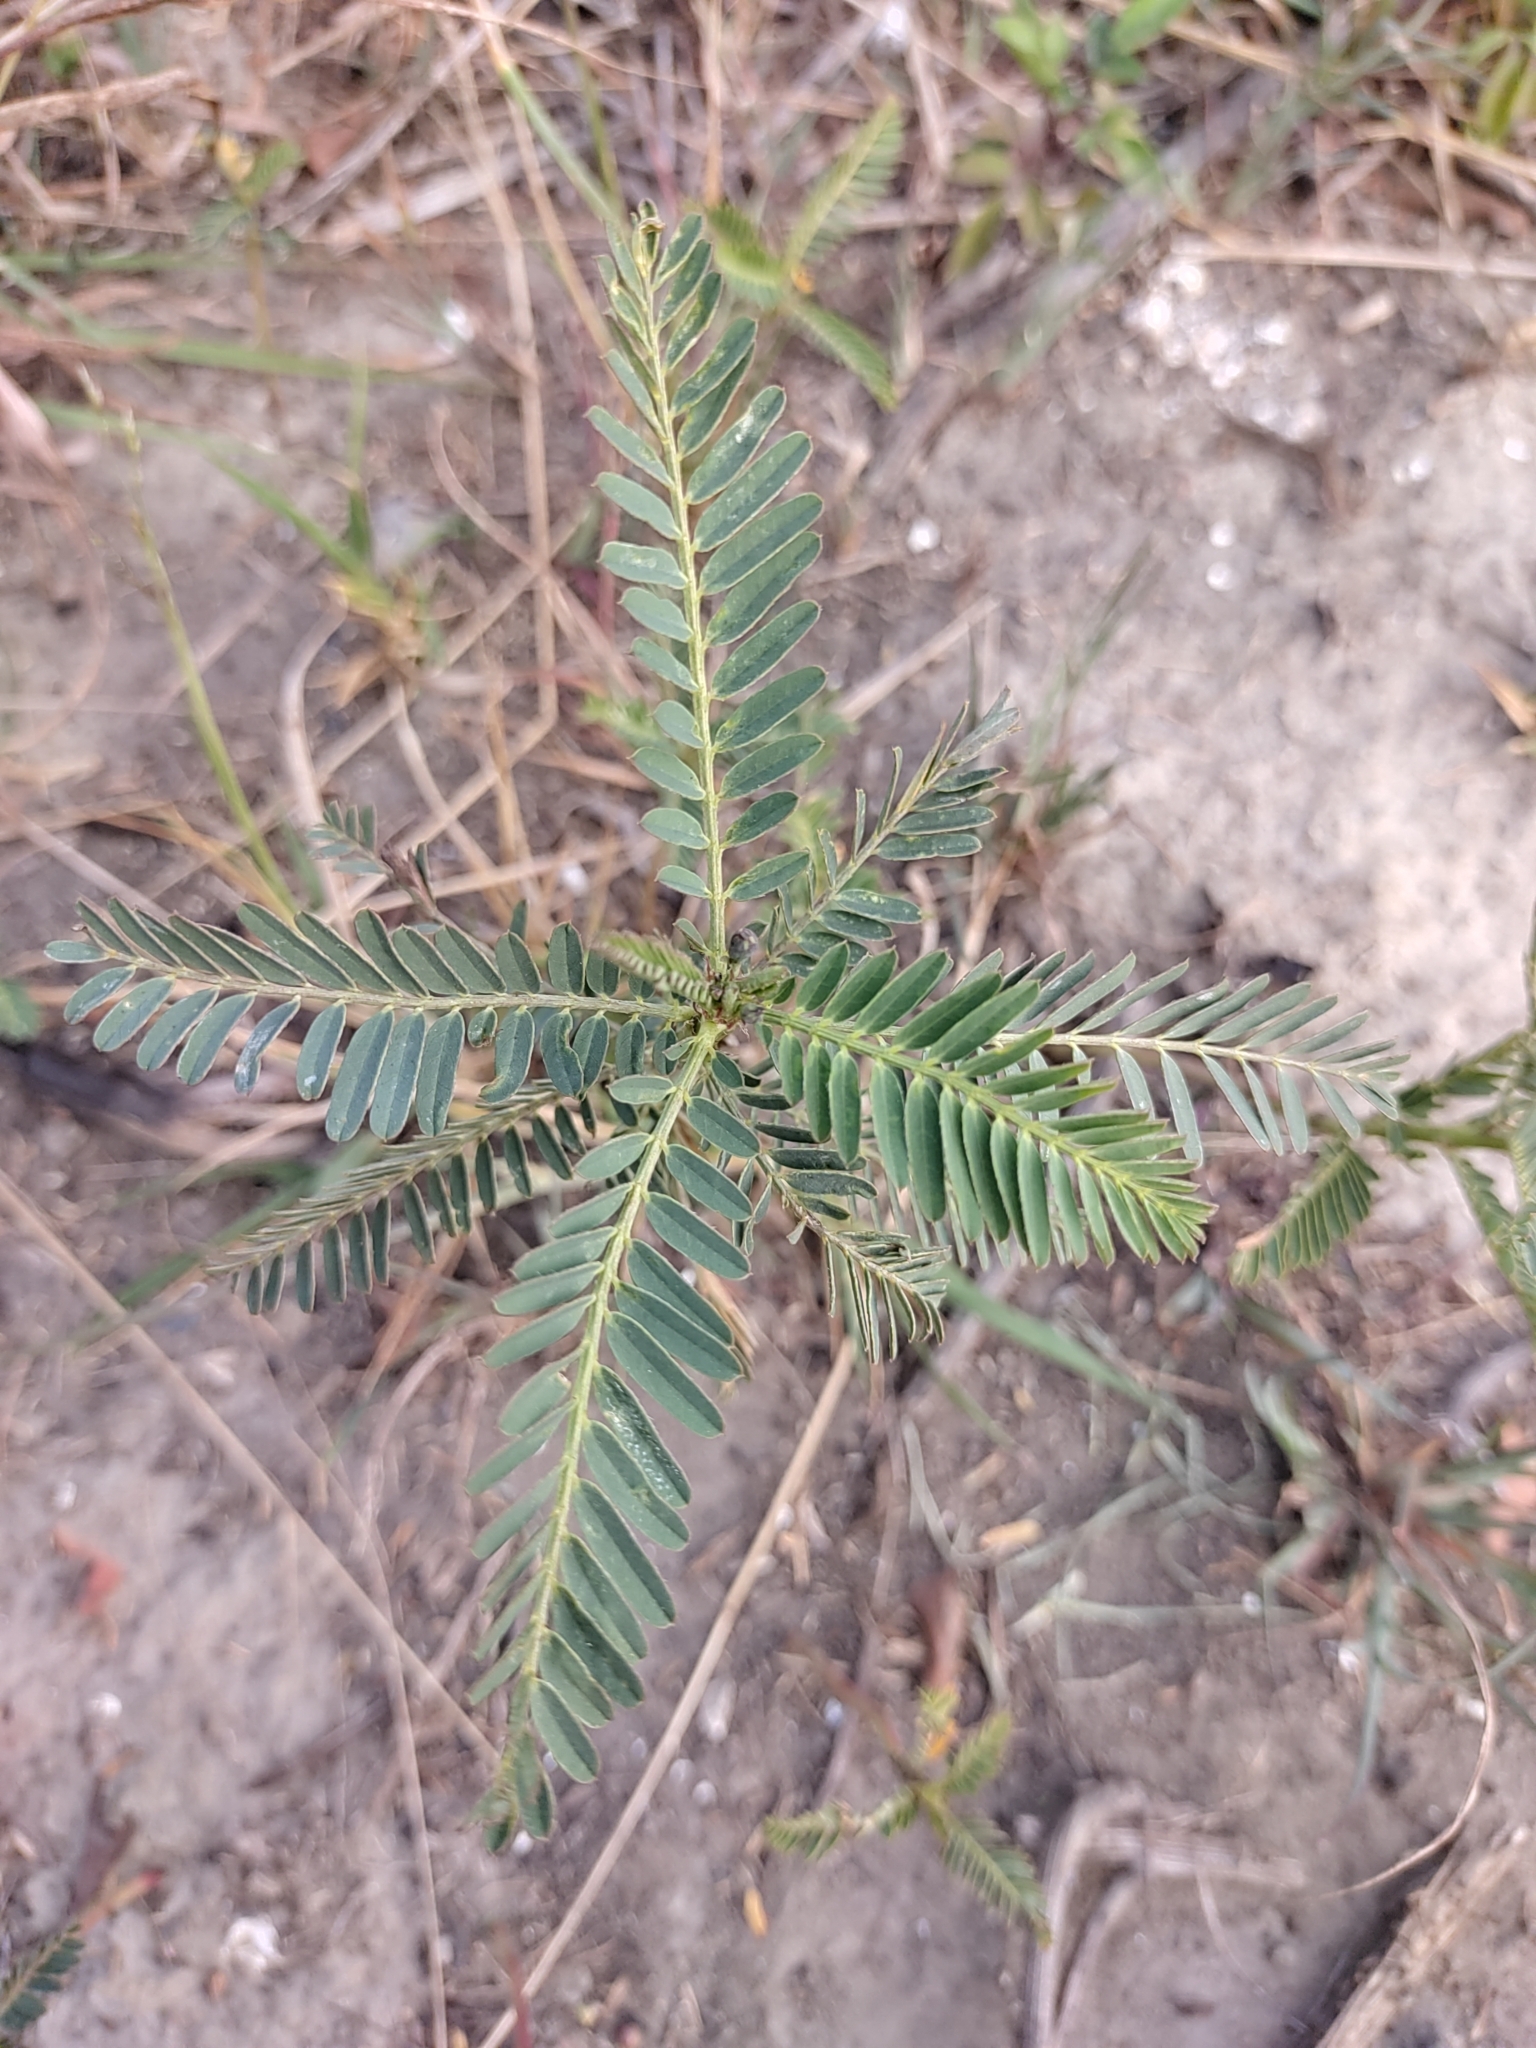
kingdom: Plantae
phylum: Tracheophyta
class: Magnoliopsida
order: Fabales
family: Fabaceae
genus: Sesbania
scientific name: Sesbania cannabina
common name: Canicha
